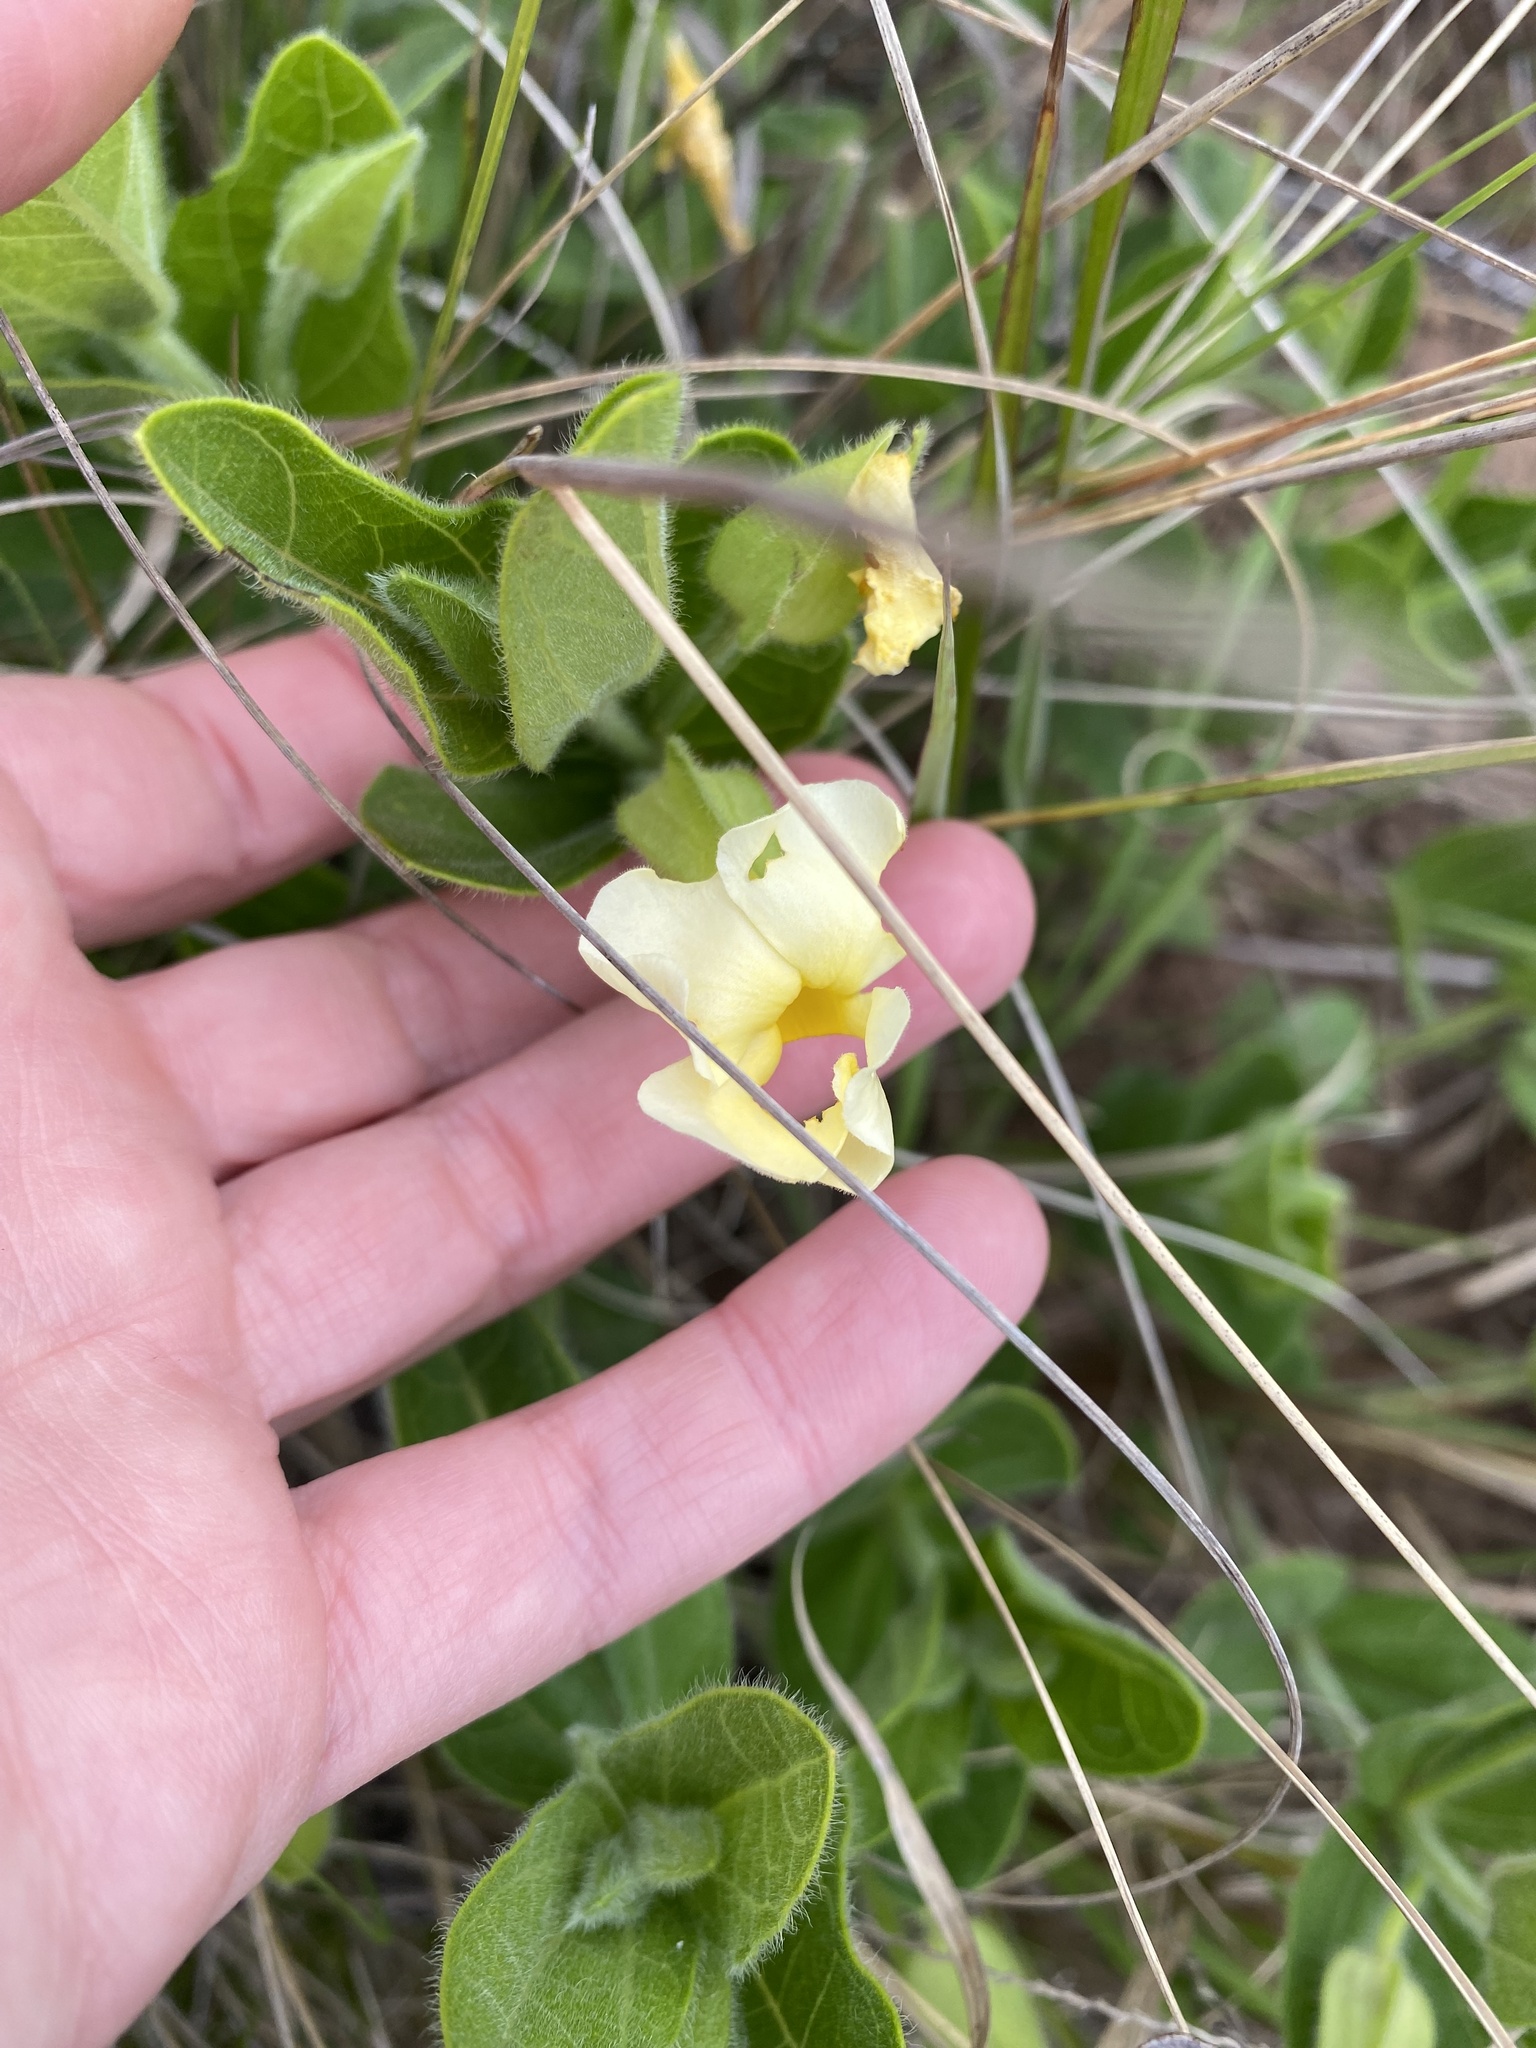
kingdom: Plantae
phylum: Tracheophyta
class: Magnoliopsida
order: Lamiales
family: Acanthaceae
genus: Thunbergia
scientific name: Thunbergia atriplicifolia
